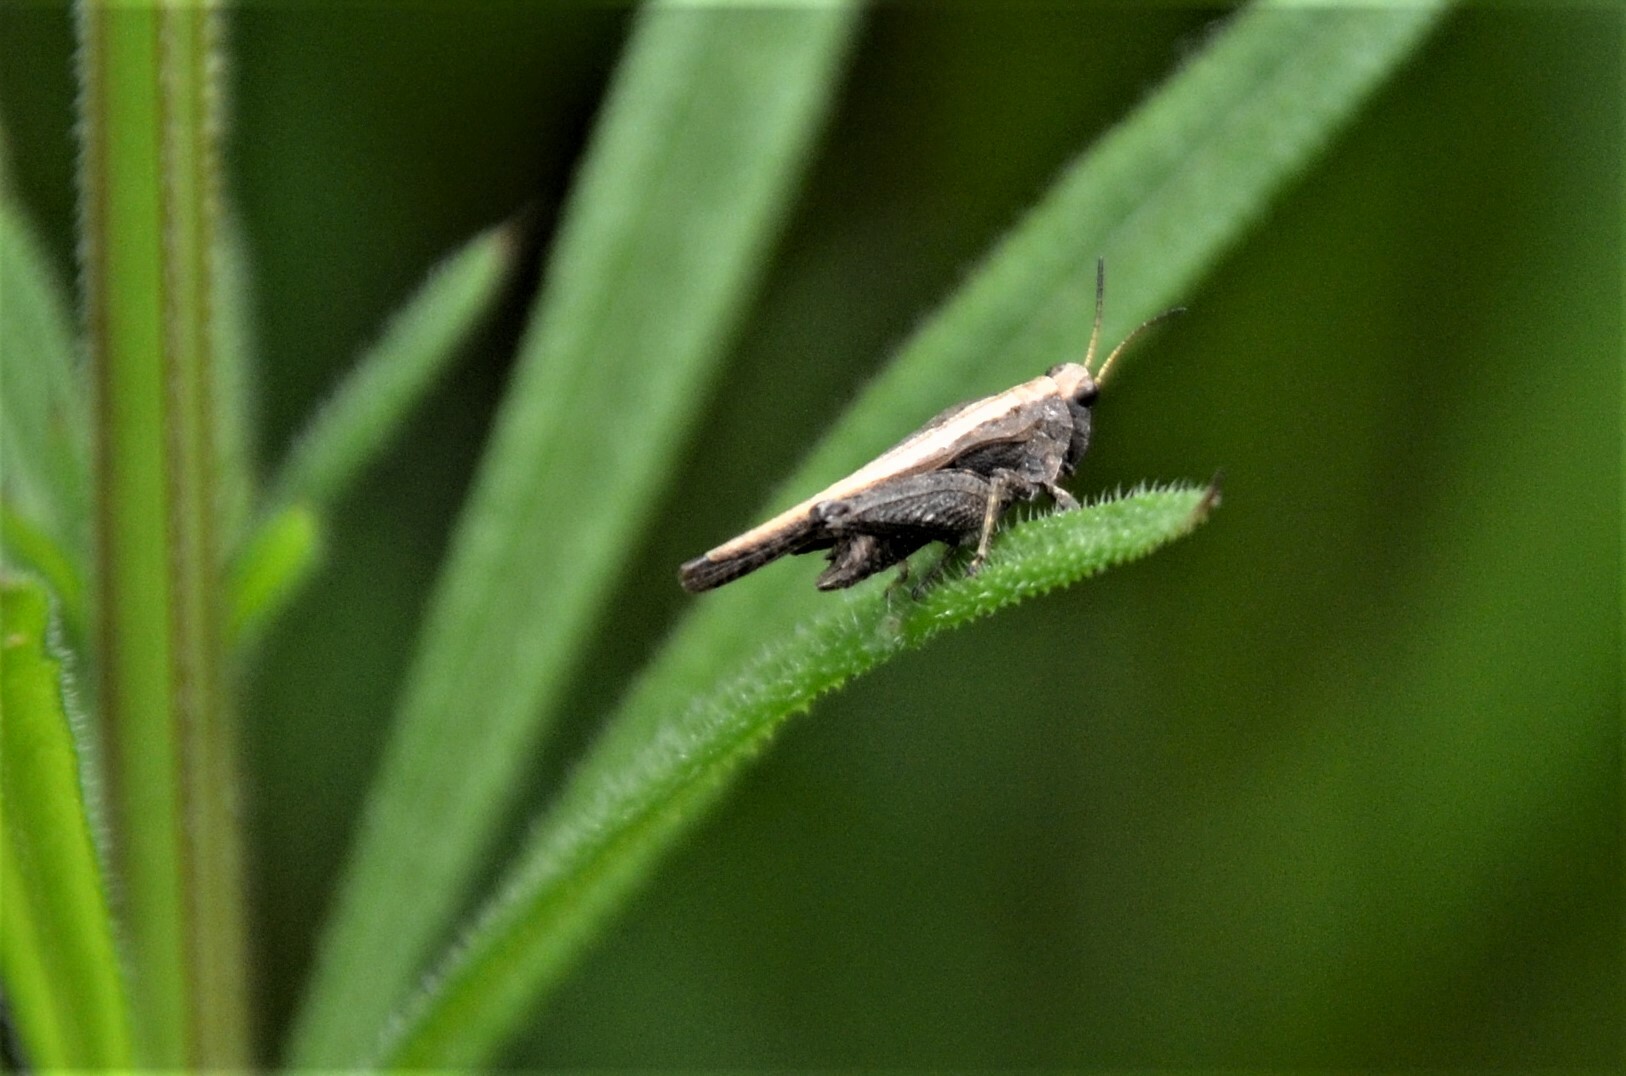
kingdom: Animalia
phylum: Arthropoda
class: Insecta
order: Orthoptera
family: Tetrigidae
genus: Tetrix
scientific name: Tetrix subulata
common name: Slender ground-hopper
